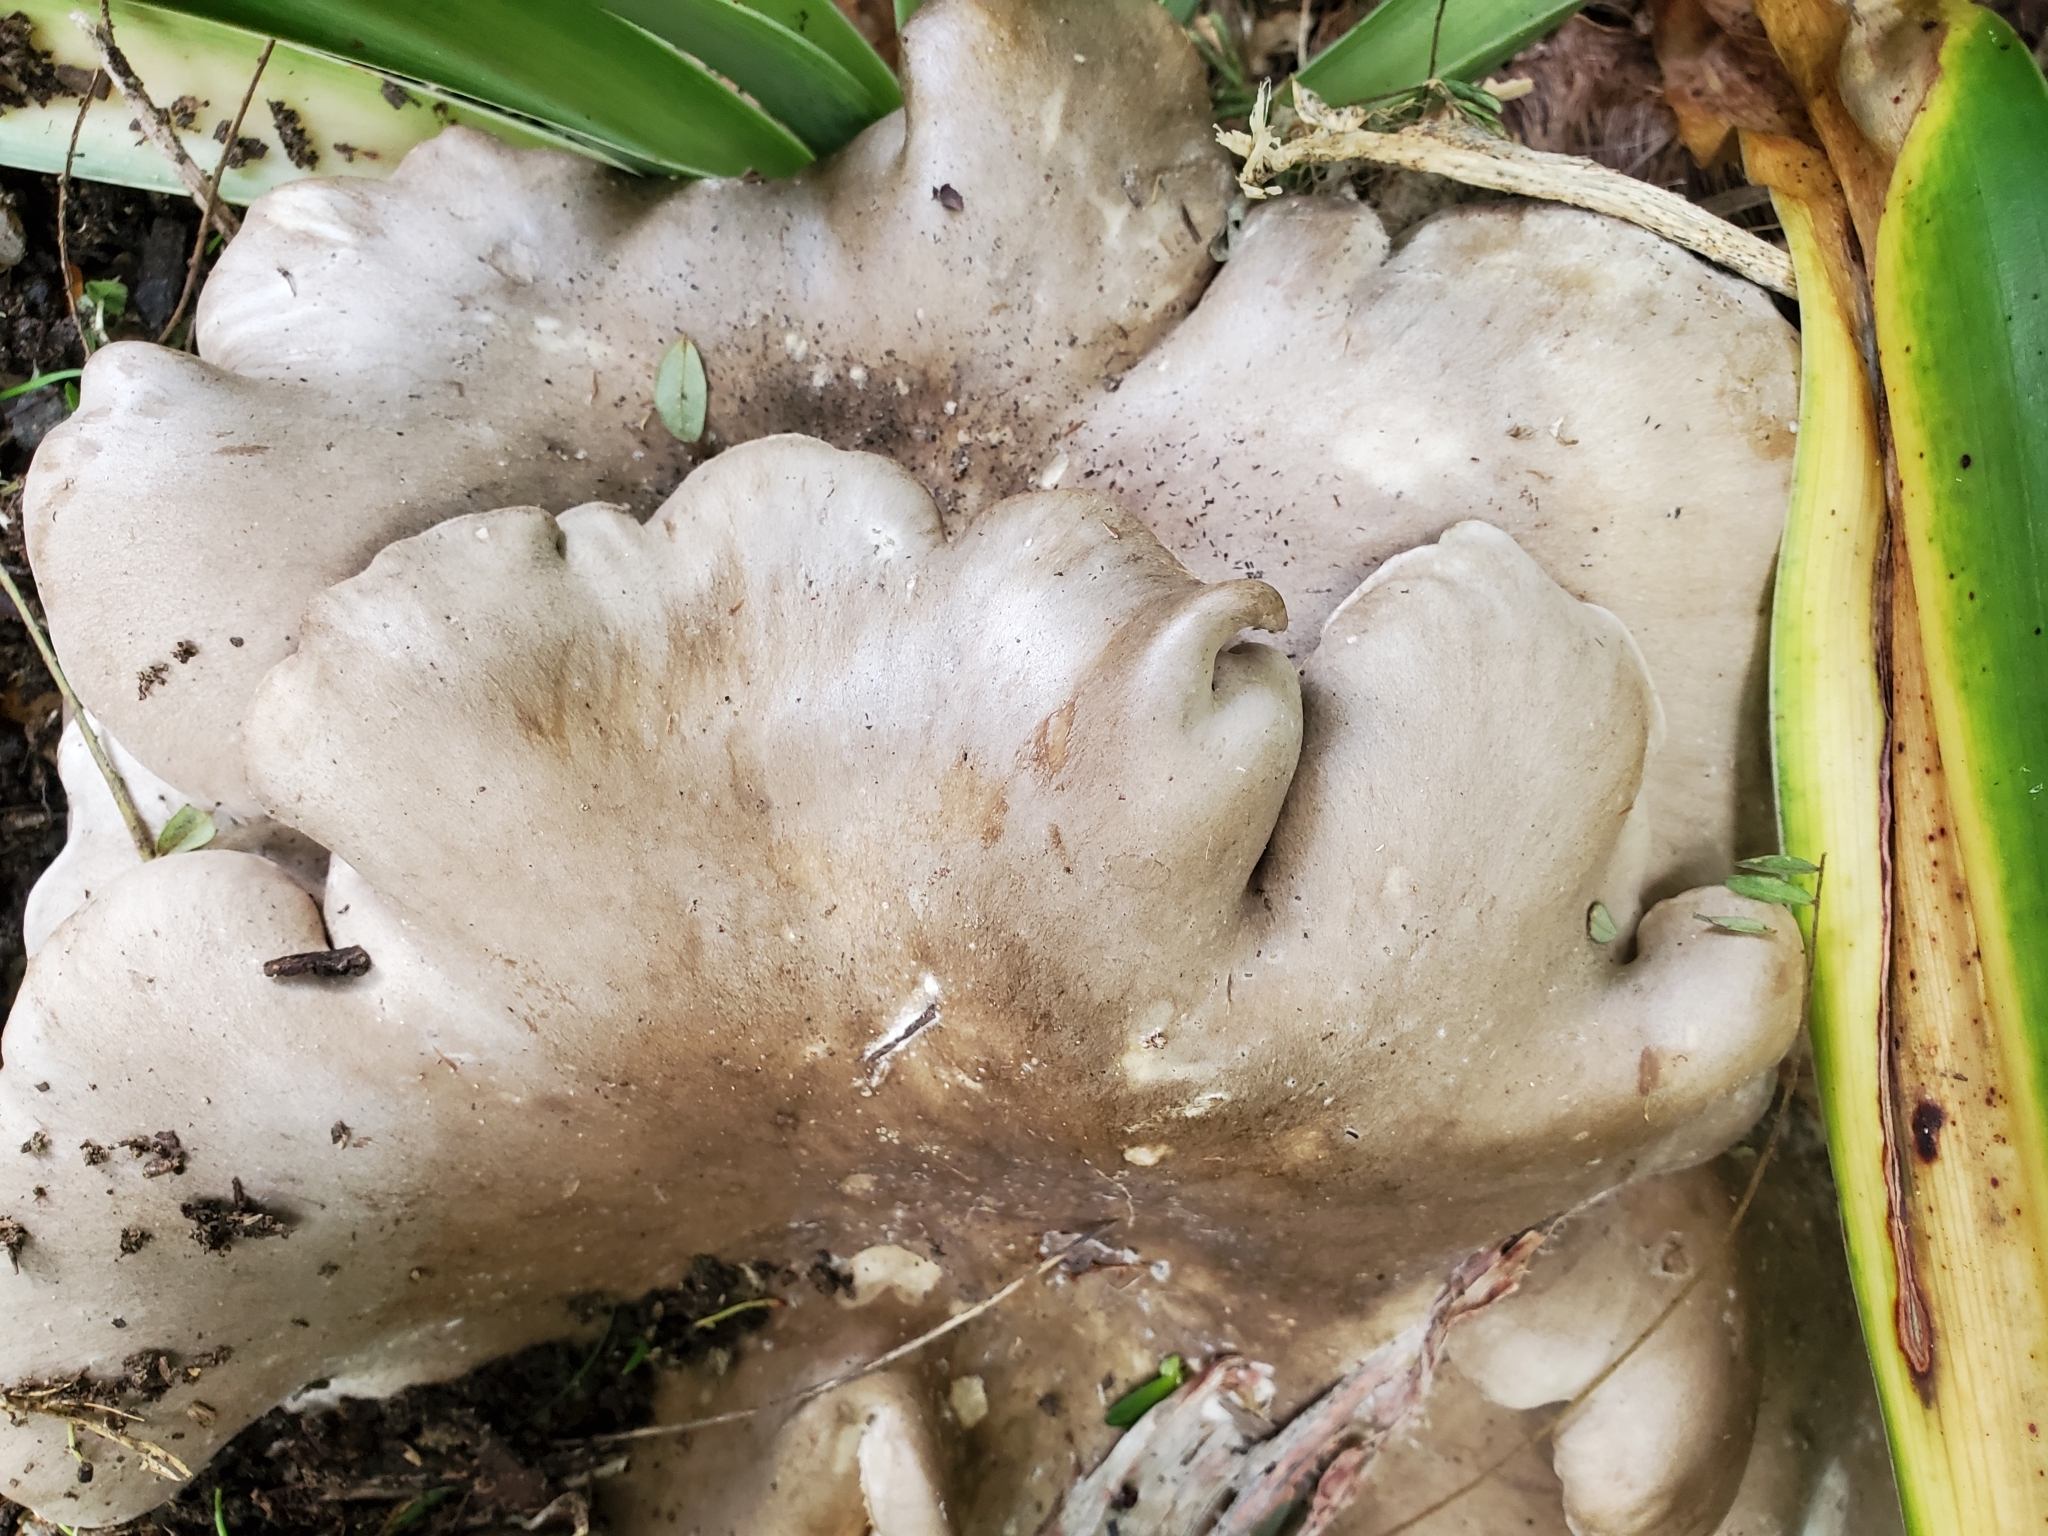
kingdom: Fungi
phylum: Basidiomycota
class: Agaricomycetes
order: Agaricales
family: Tricholomataceae
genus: Clitocybe
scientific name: Clitocybe nebularis
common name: Clouded agaric
